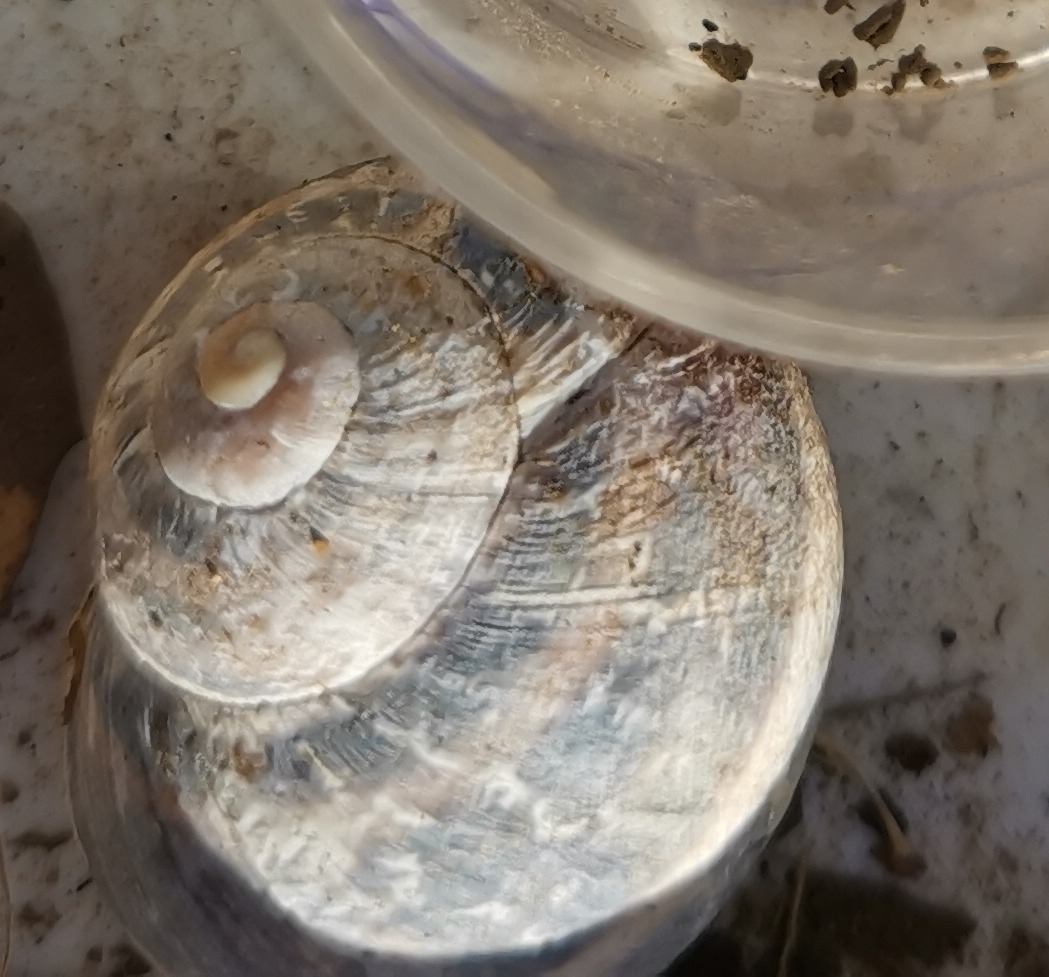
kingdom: Animalia
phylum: Mollusca
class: Gastropoda
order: Stylommatophora
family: Helicidae
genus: Cornu
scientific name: Cornu aspersum
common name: Brown garden snail
